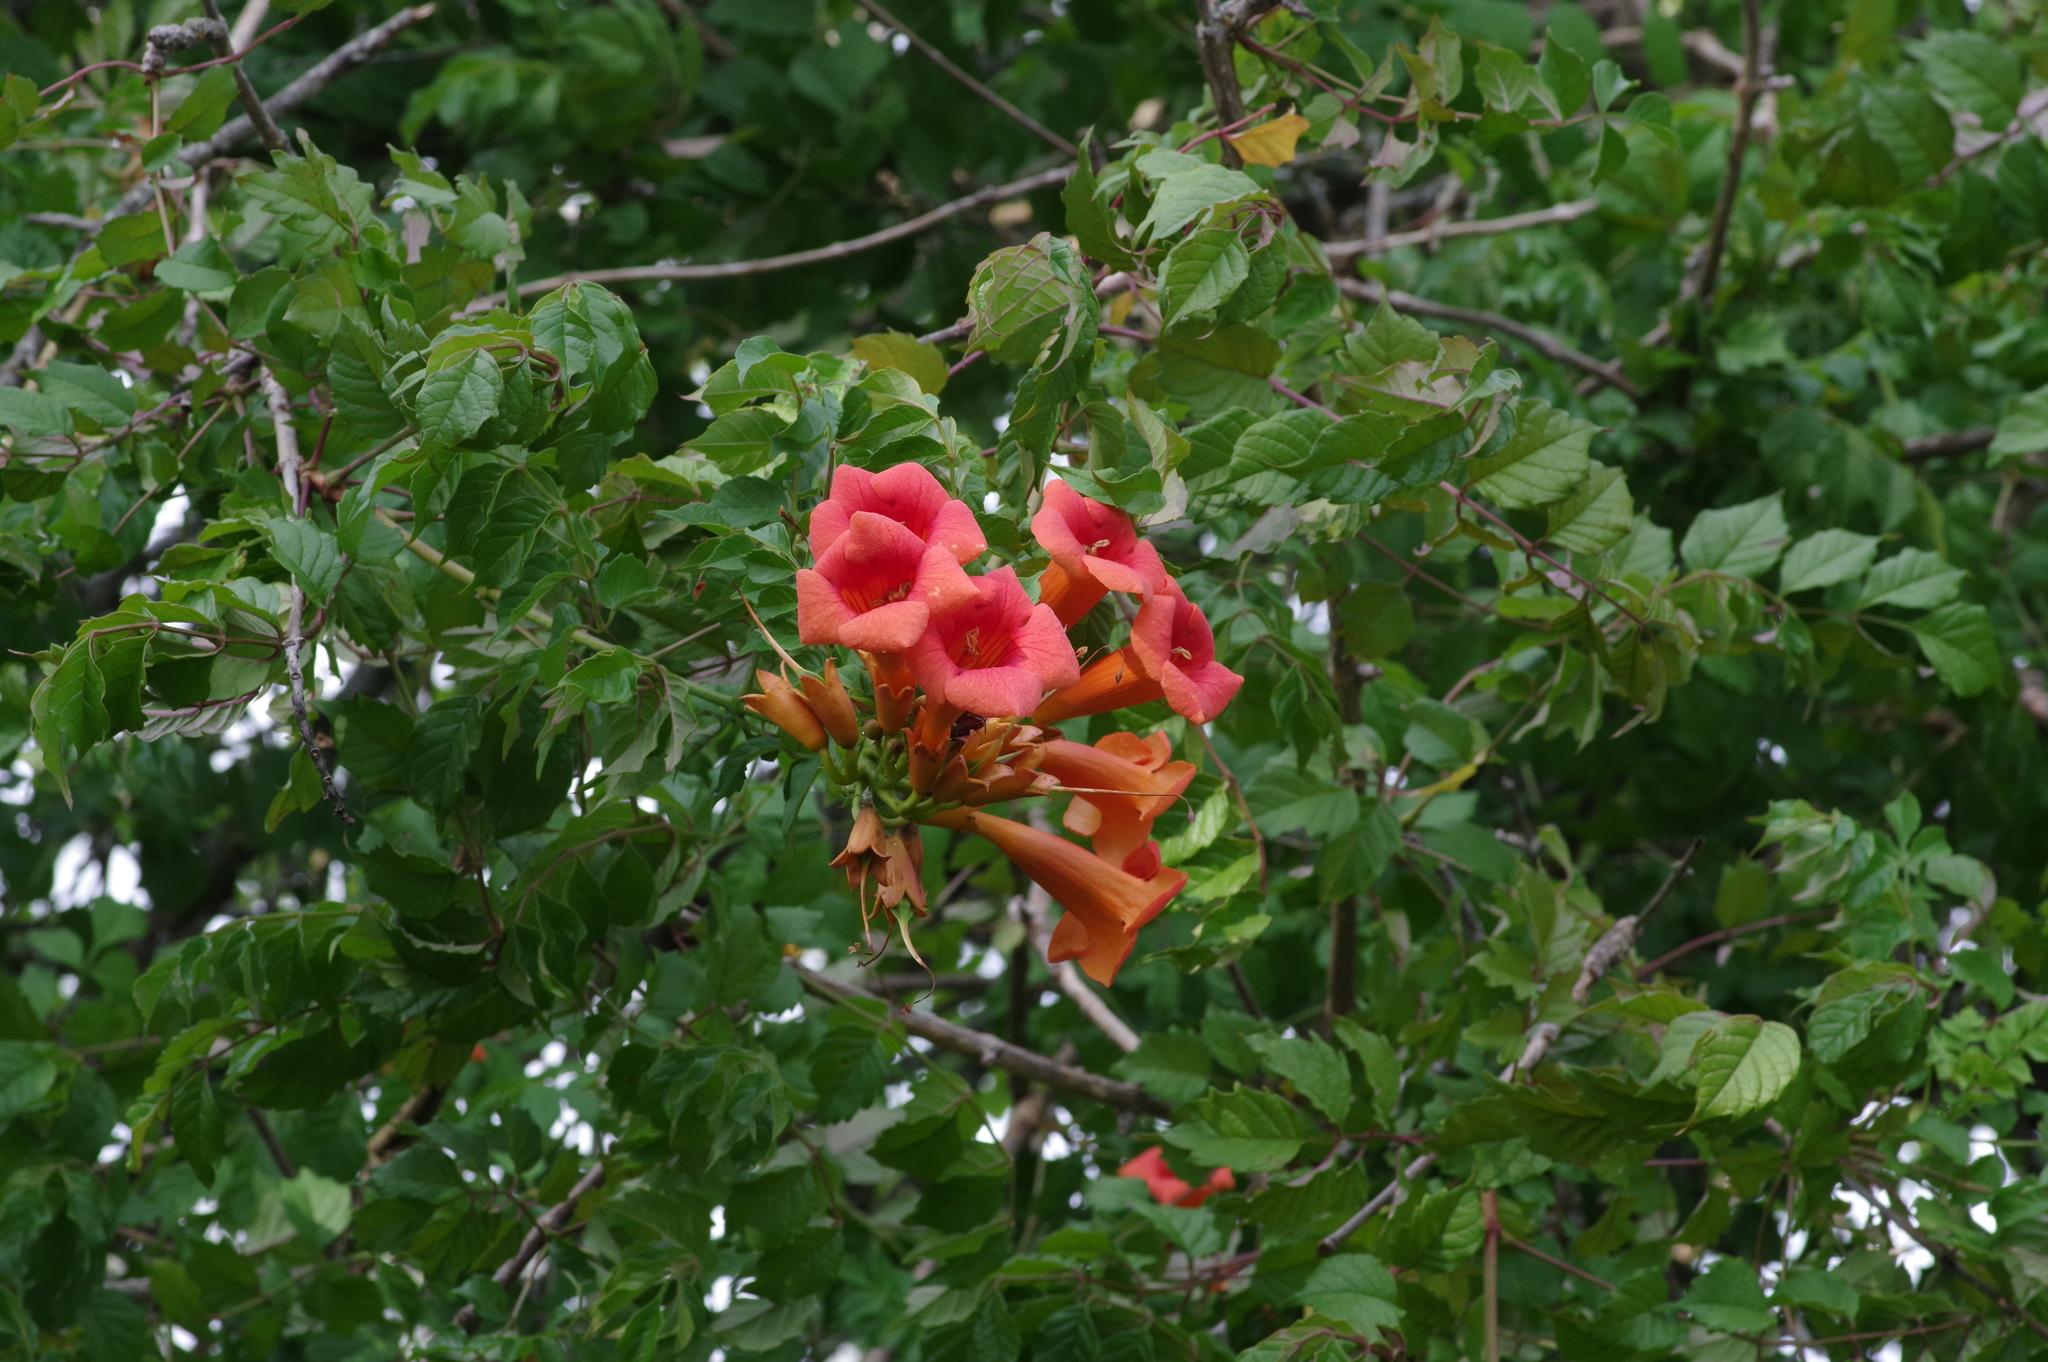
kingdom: Plantae
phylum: Tracheophyta
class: Magnoliopsida
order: Lamiales
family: Bignoniaceae
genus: Campsis
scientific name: Campsis radicans
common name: Trumpet-creeper
